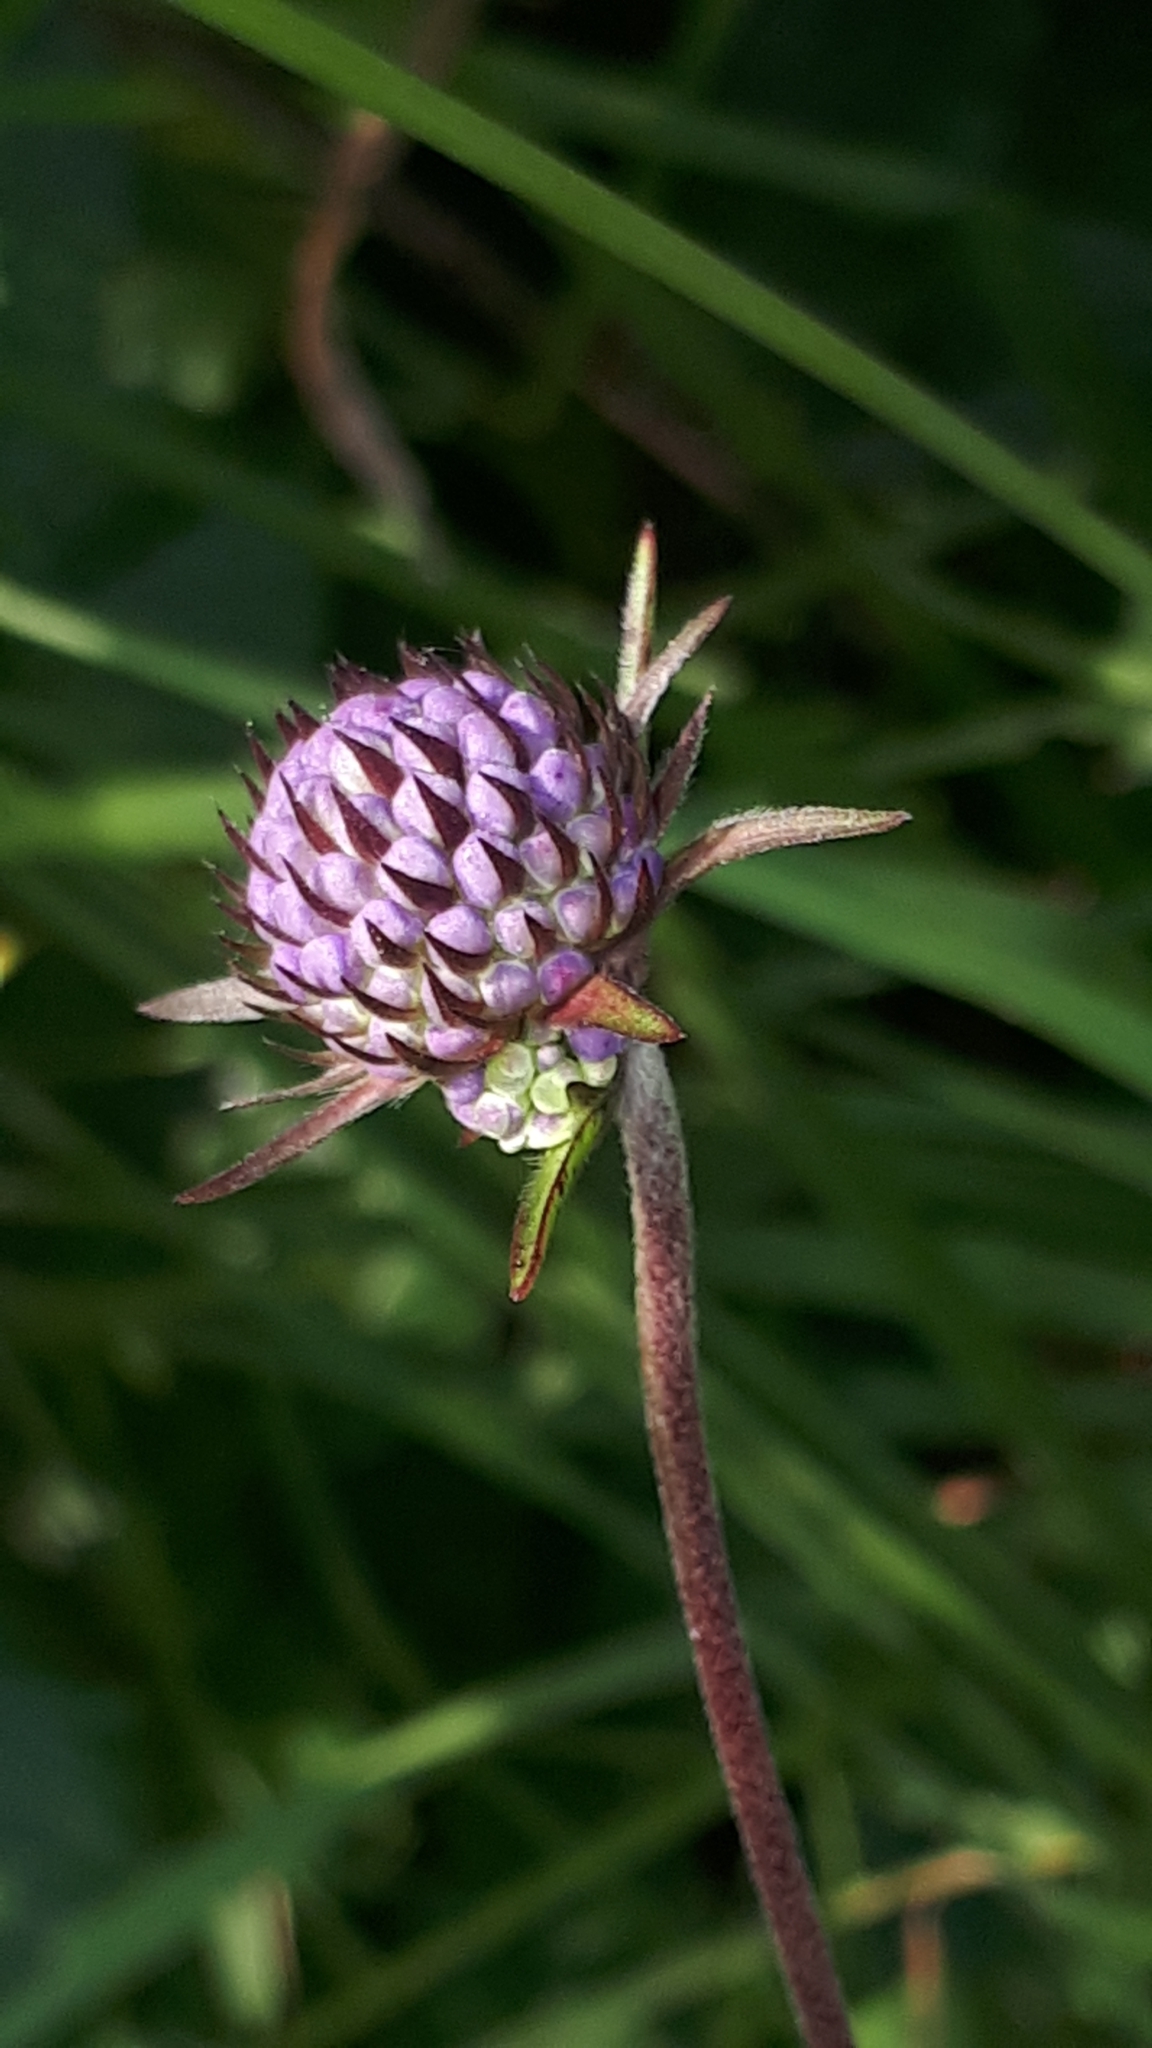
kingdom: Plantae
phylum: Tracheophyta
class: Magnoliopsida
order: Dipsacales
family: Caprifoliaceae
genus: Succisa
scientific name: Succisa pratensis
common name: Devil's-bit
